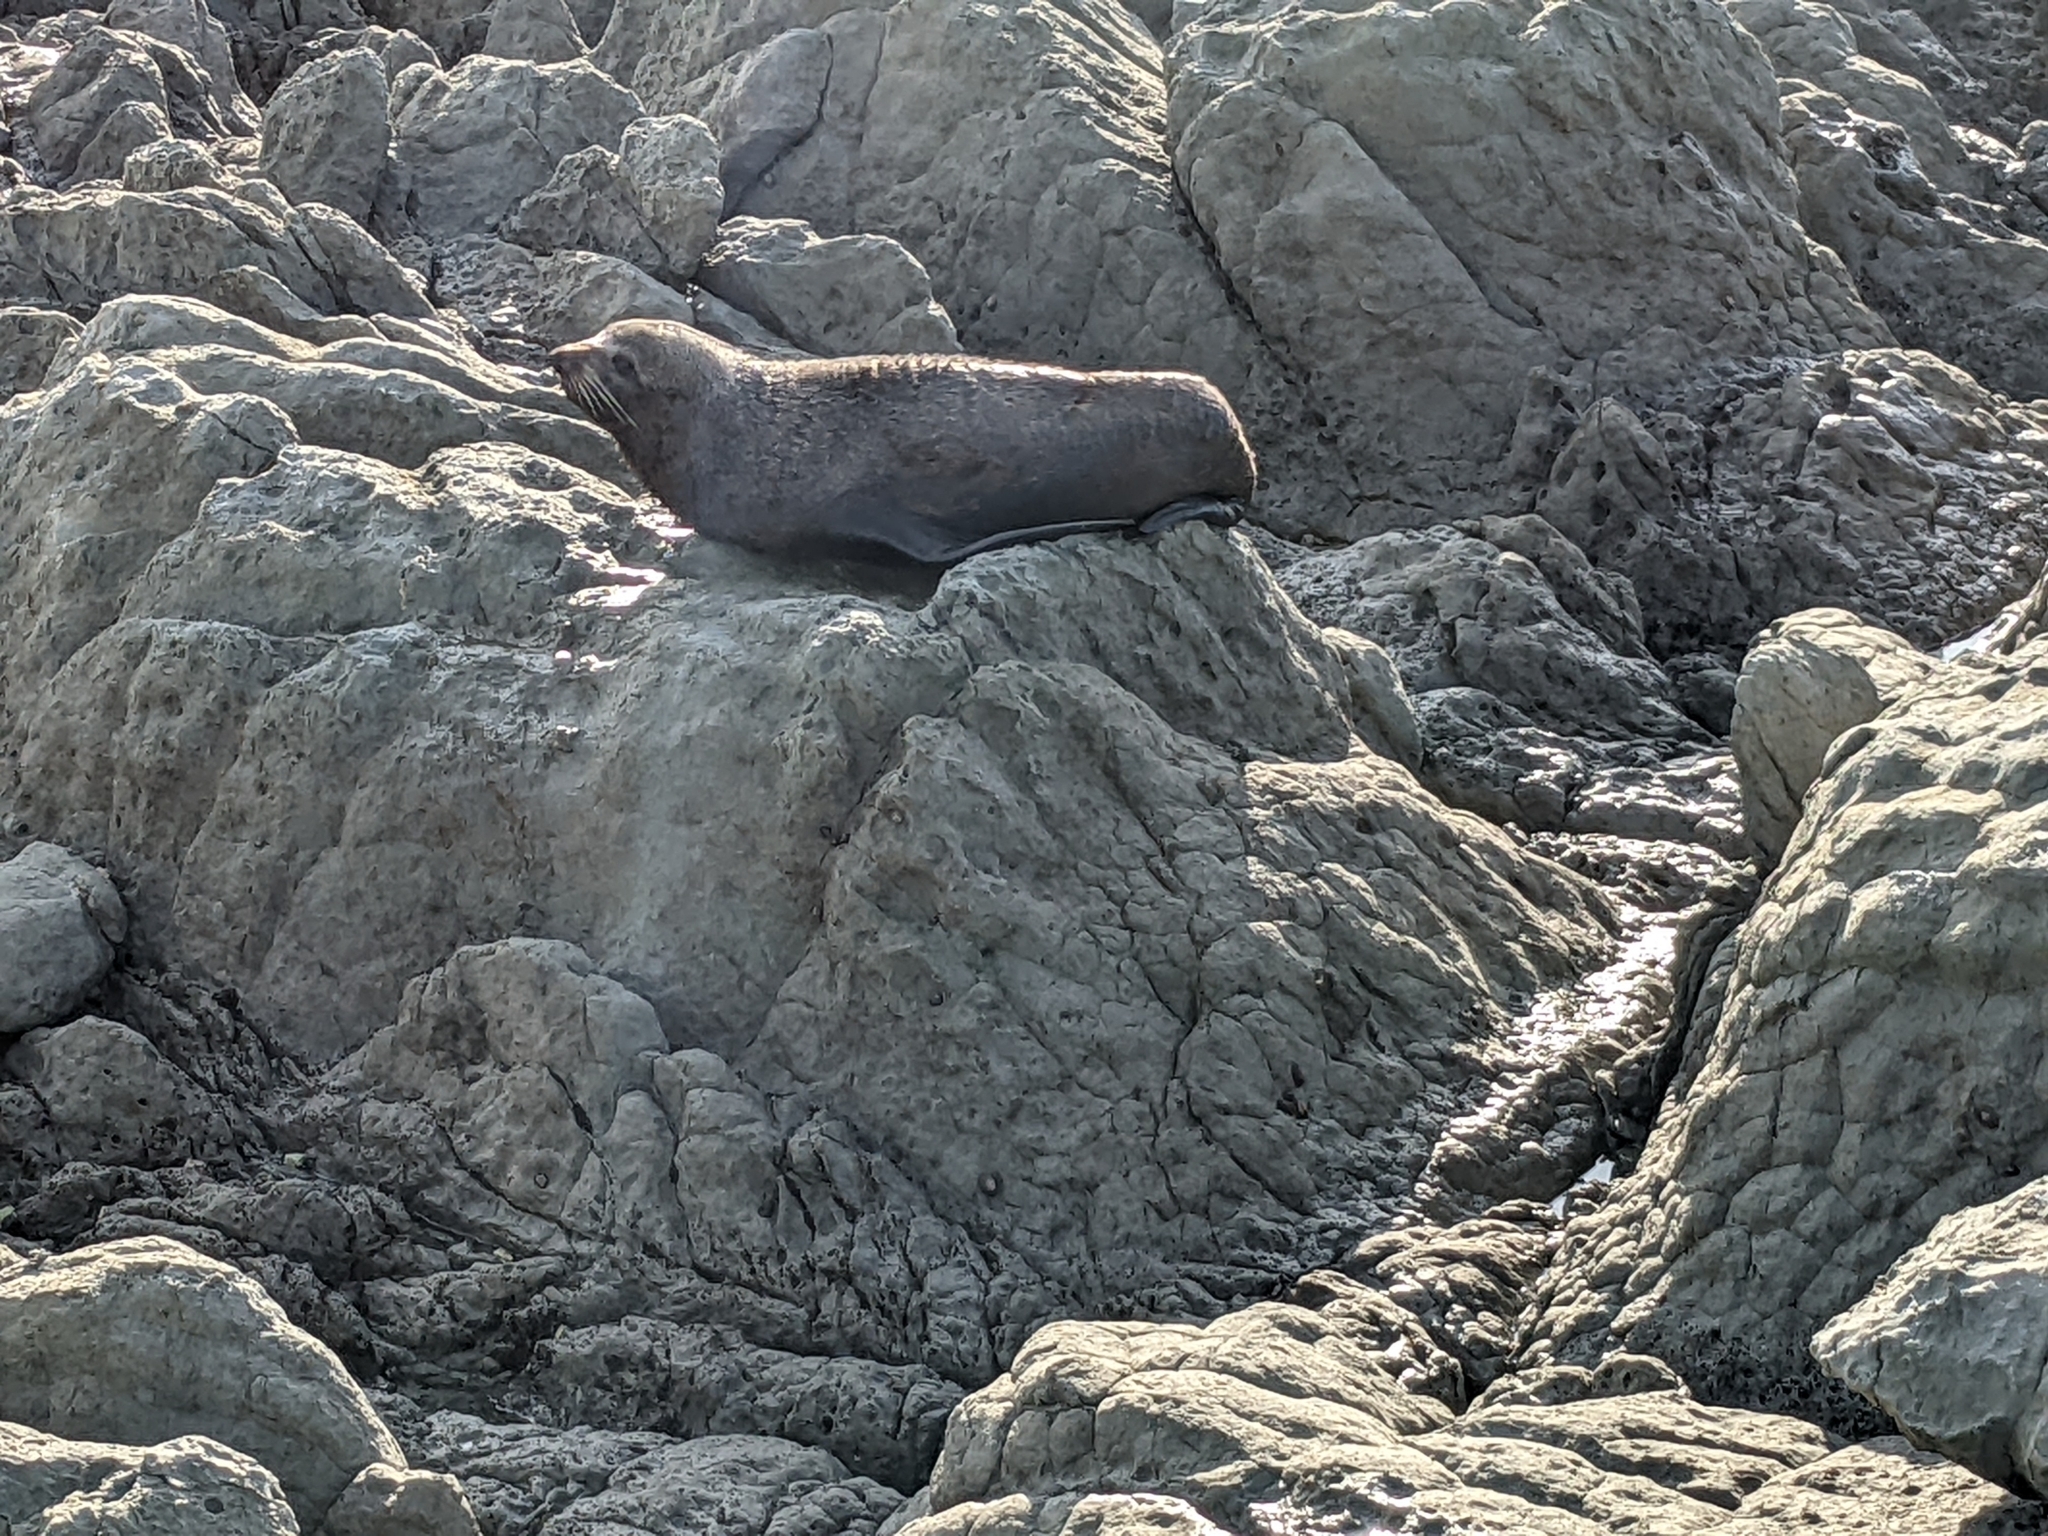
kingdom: Animalia
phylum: Chordata
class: Mammalia
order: Carnivora
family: Otariidae
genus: Arctocephalus
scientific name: Arctocephalus forsteri
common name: New zealand fur seal
